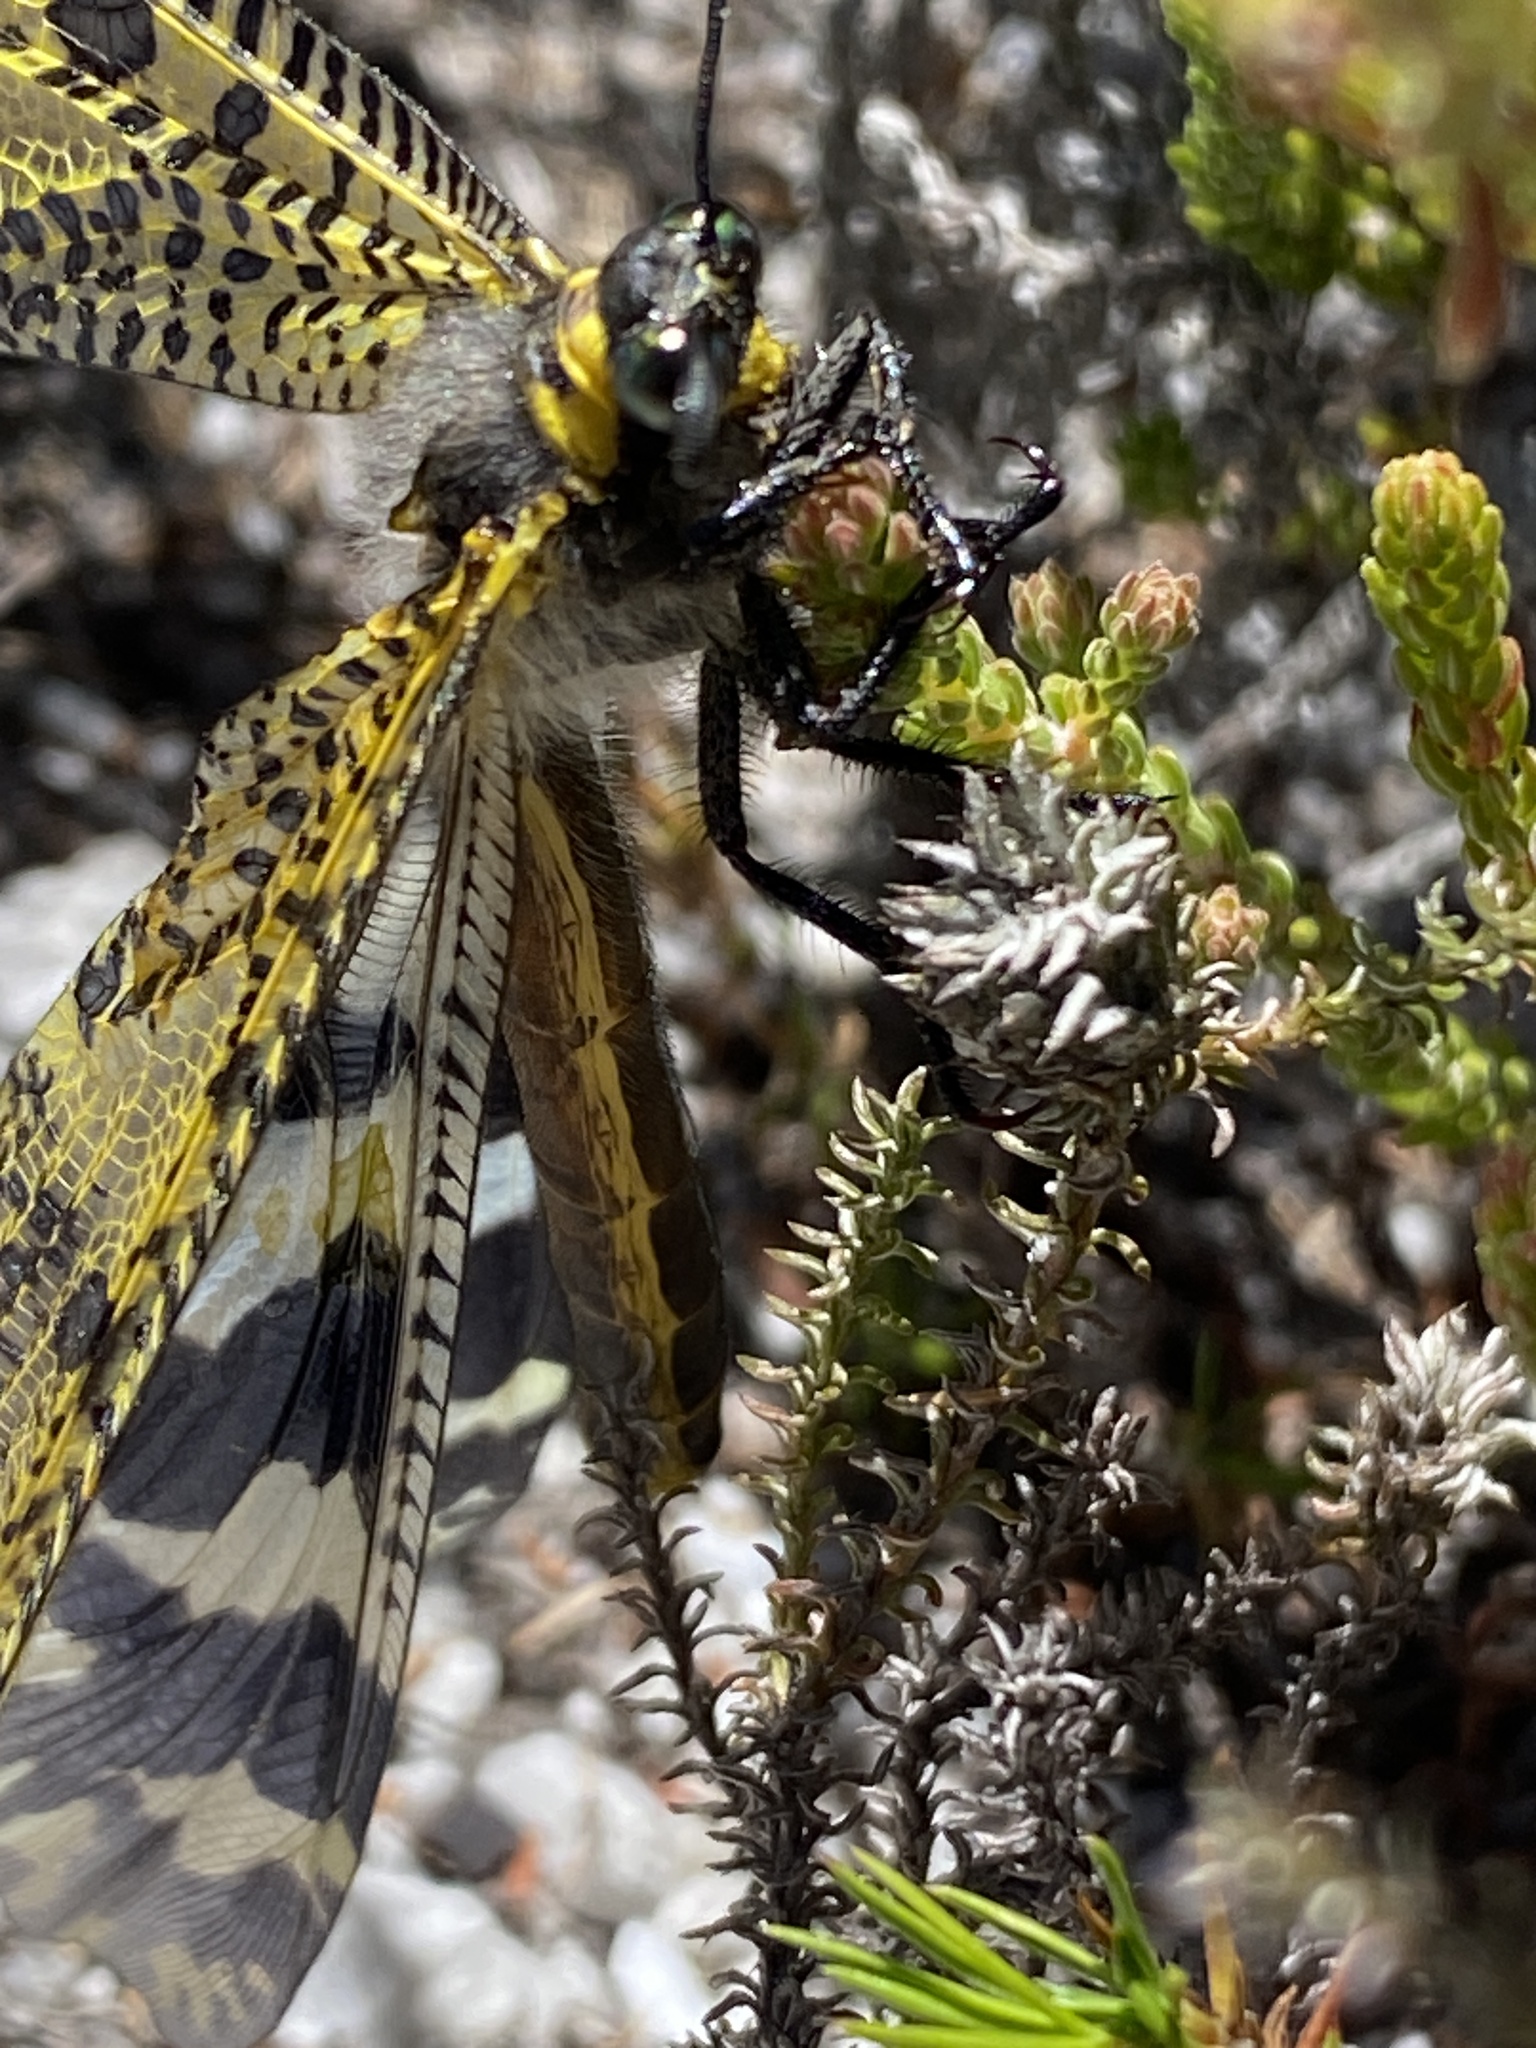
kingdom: Animalia
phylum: Arthropoda
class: Insecta
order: Neuroptera
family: Myrmeleontidae
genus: Palpares
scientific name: Palpares speciosus
